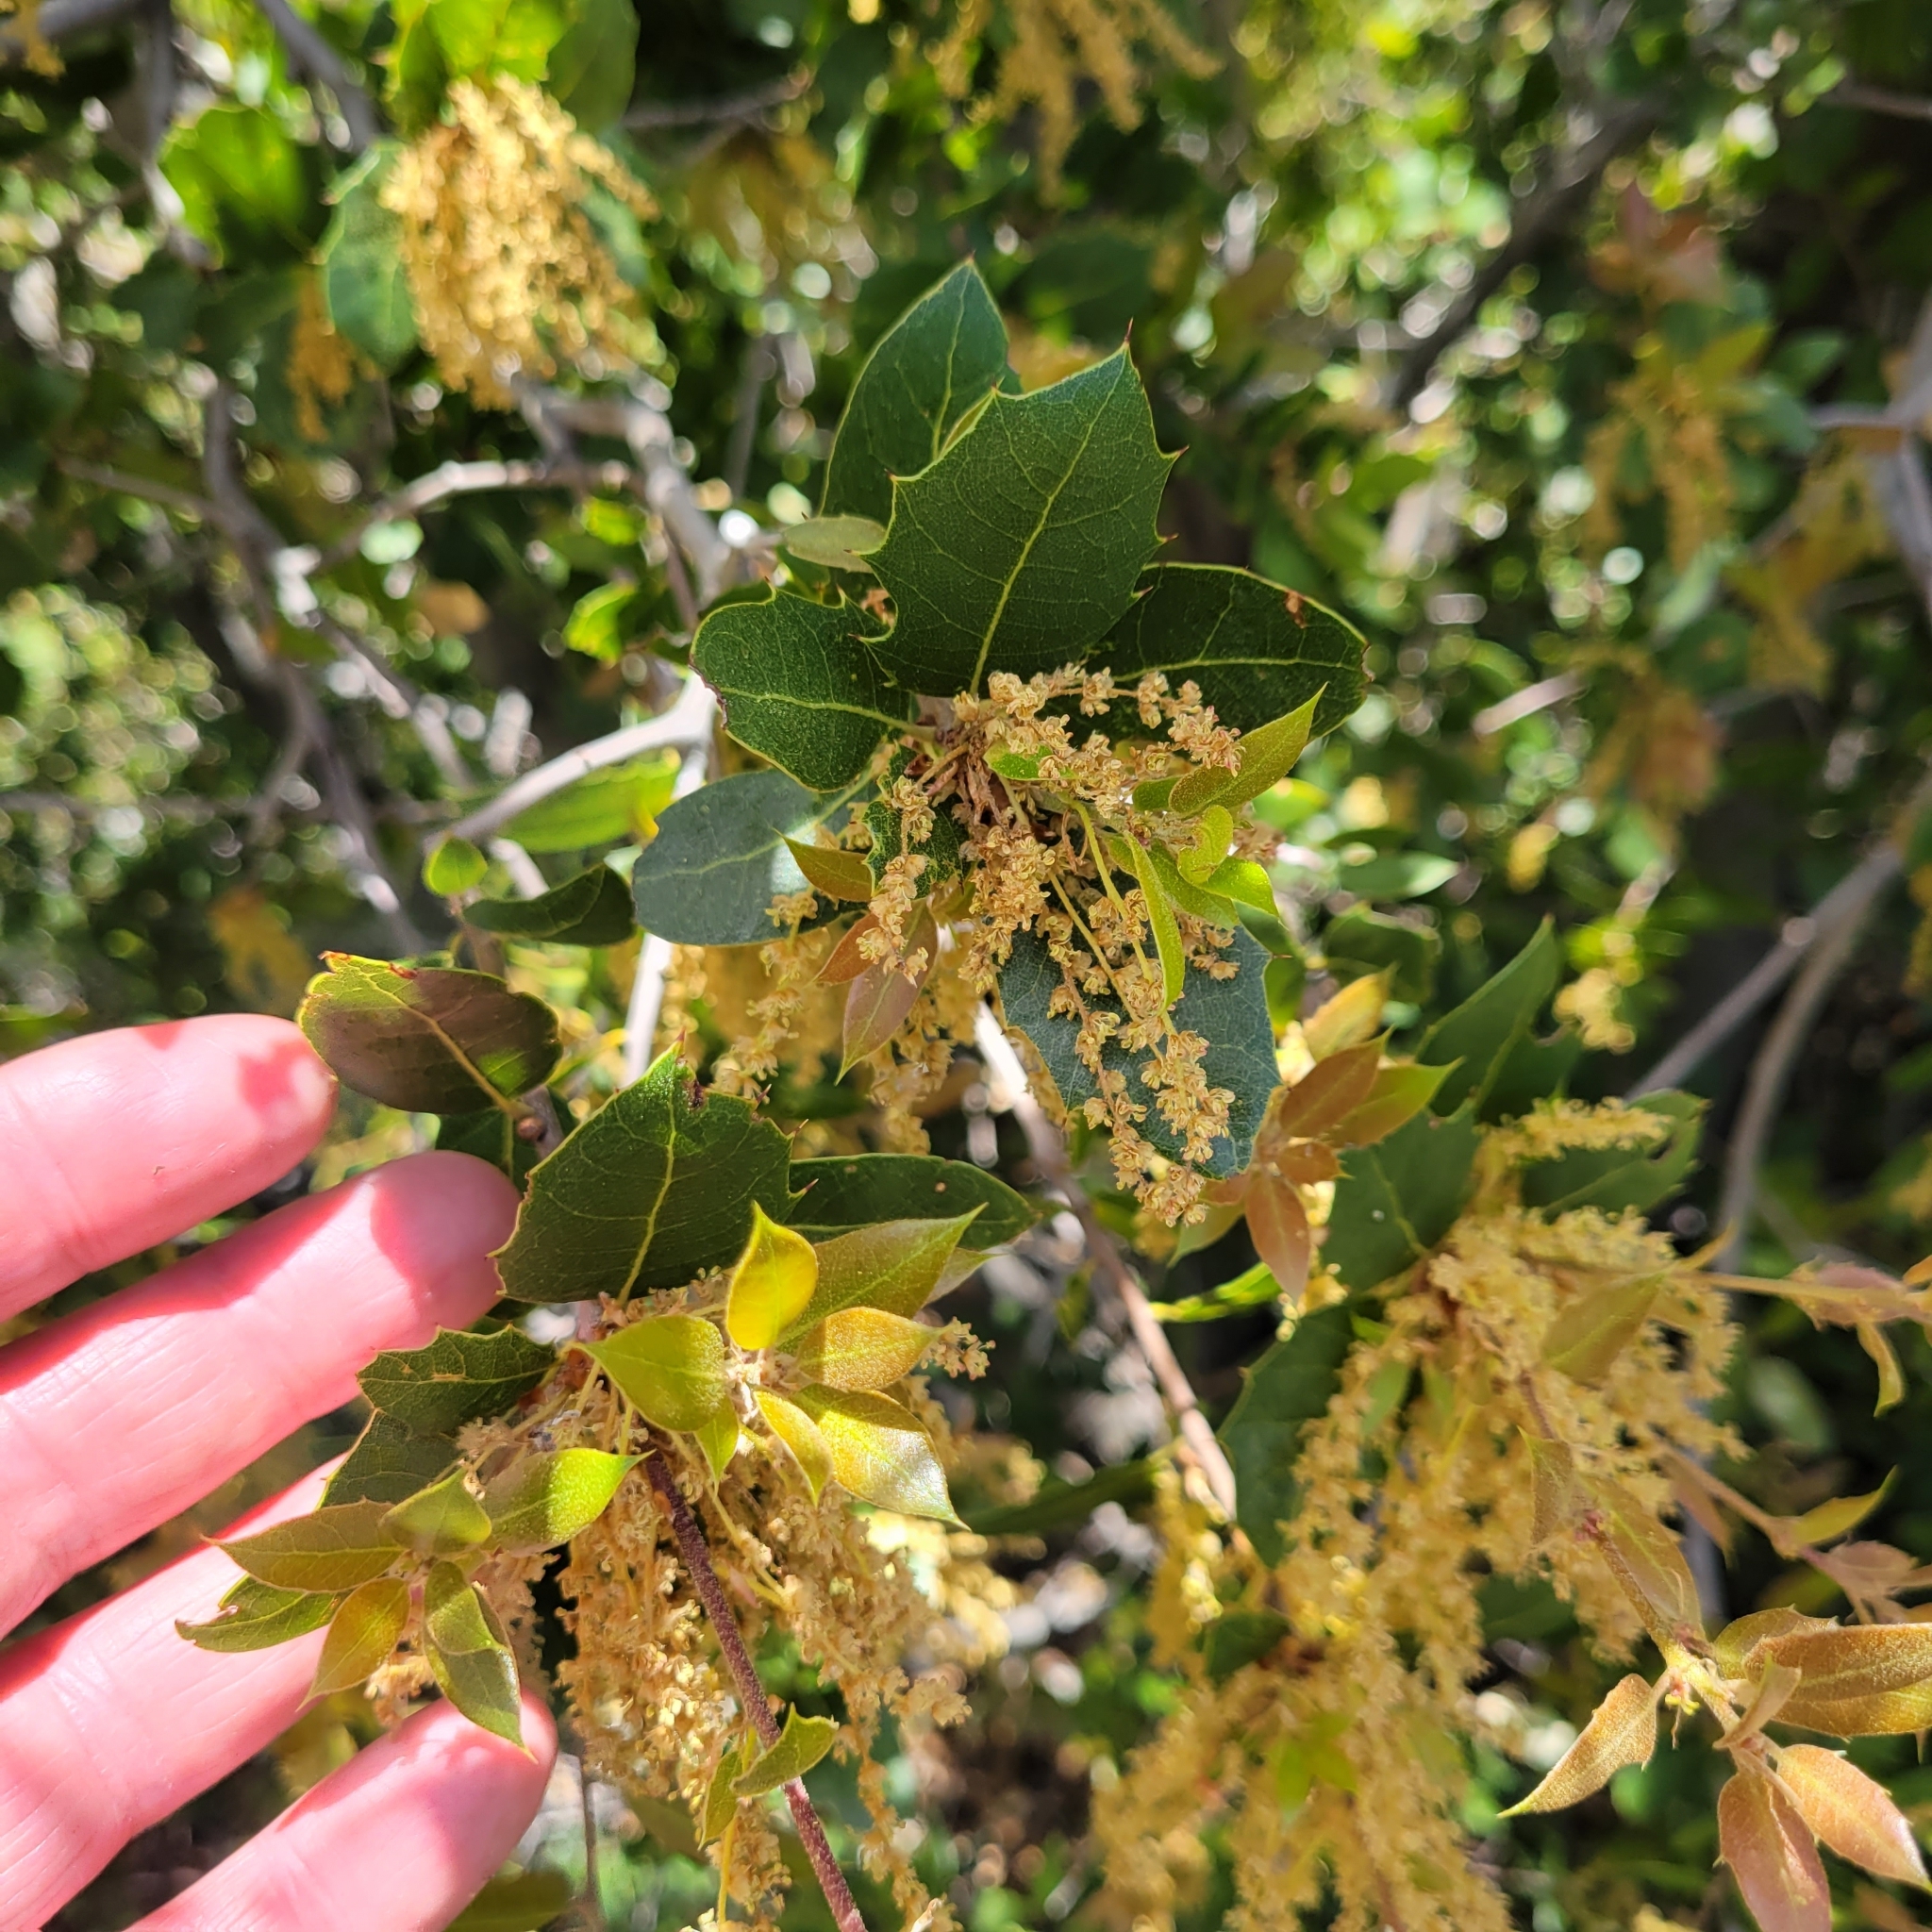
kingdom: Plantae
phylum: Tracheophyta
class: Magnoliopsida
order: Fagales
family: Fagaceae
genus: Quercus
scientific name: Quercus wislizeni
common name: Interior live oak
